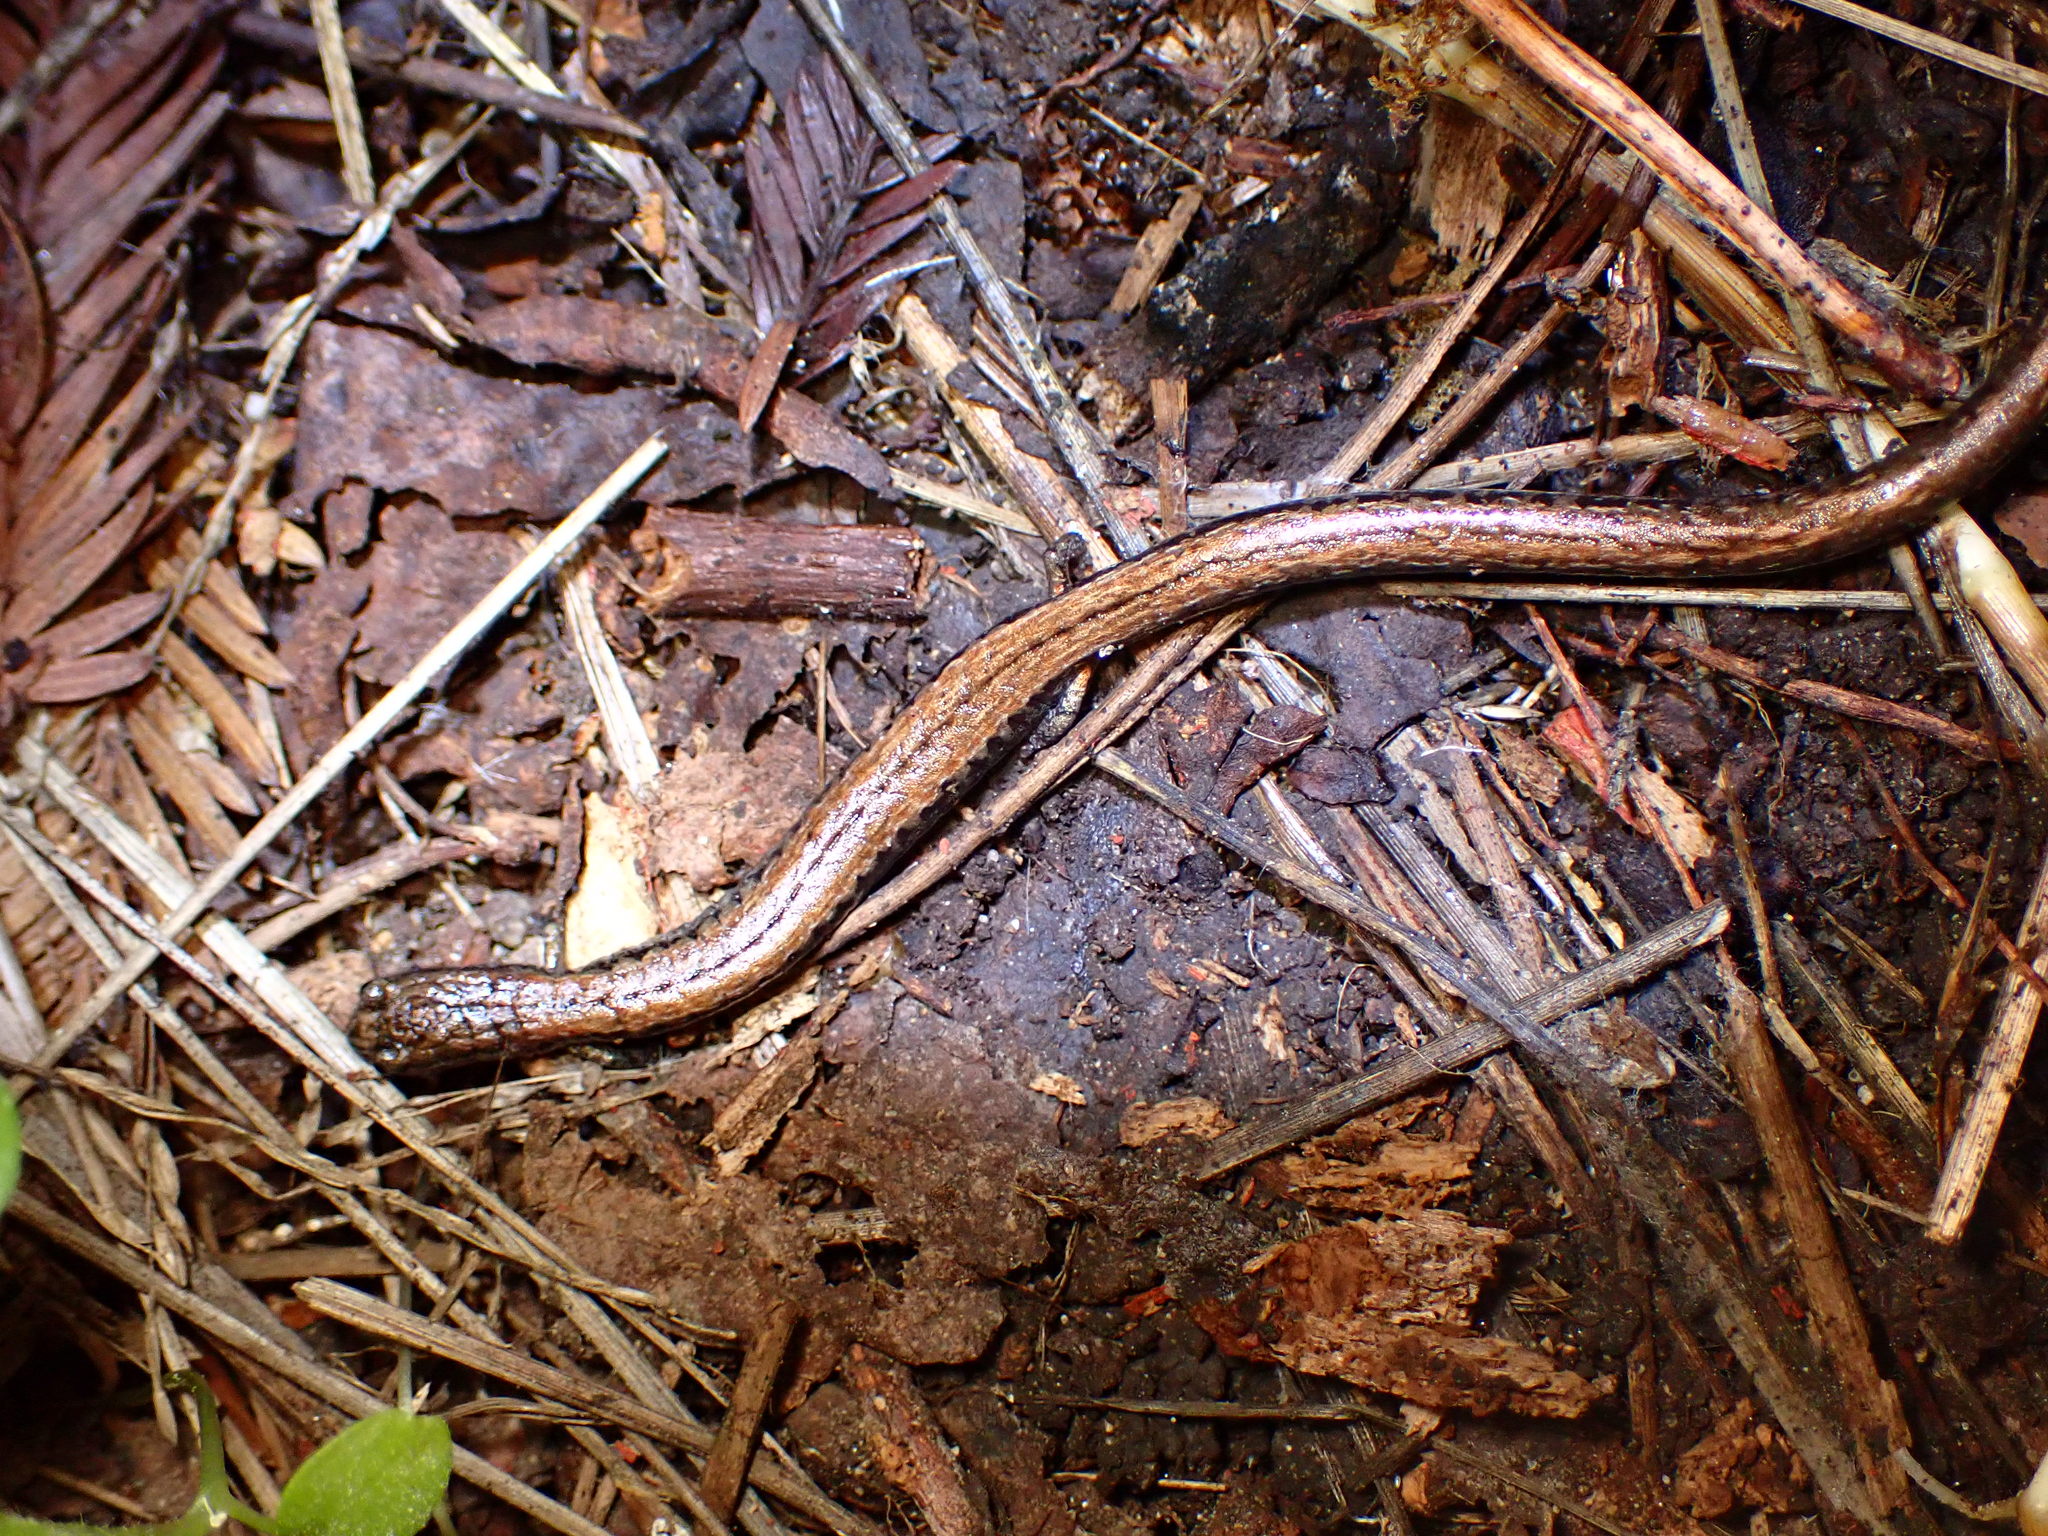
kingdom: Animalia
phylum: Chordata
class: Amphibia
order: Caudata
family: Plethodontidae
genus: Batrachoseps
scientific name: Batrachoseps attenuatus
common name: California slender salamander
